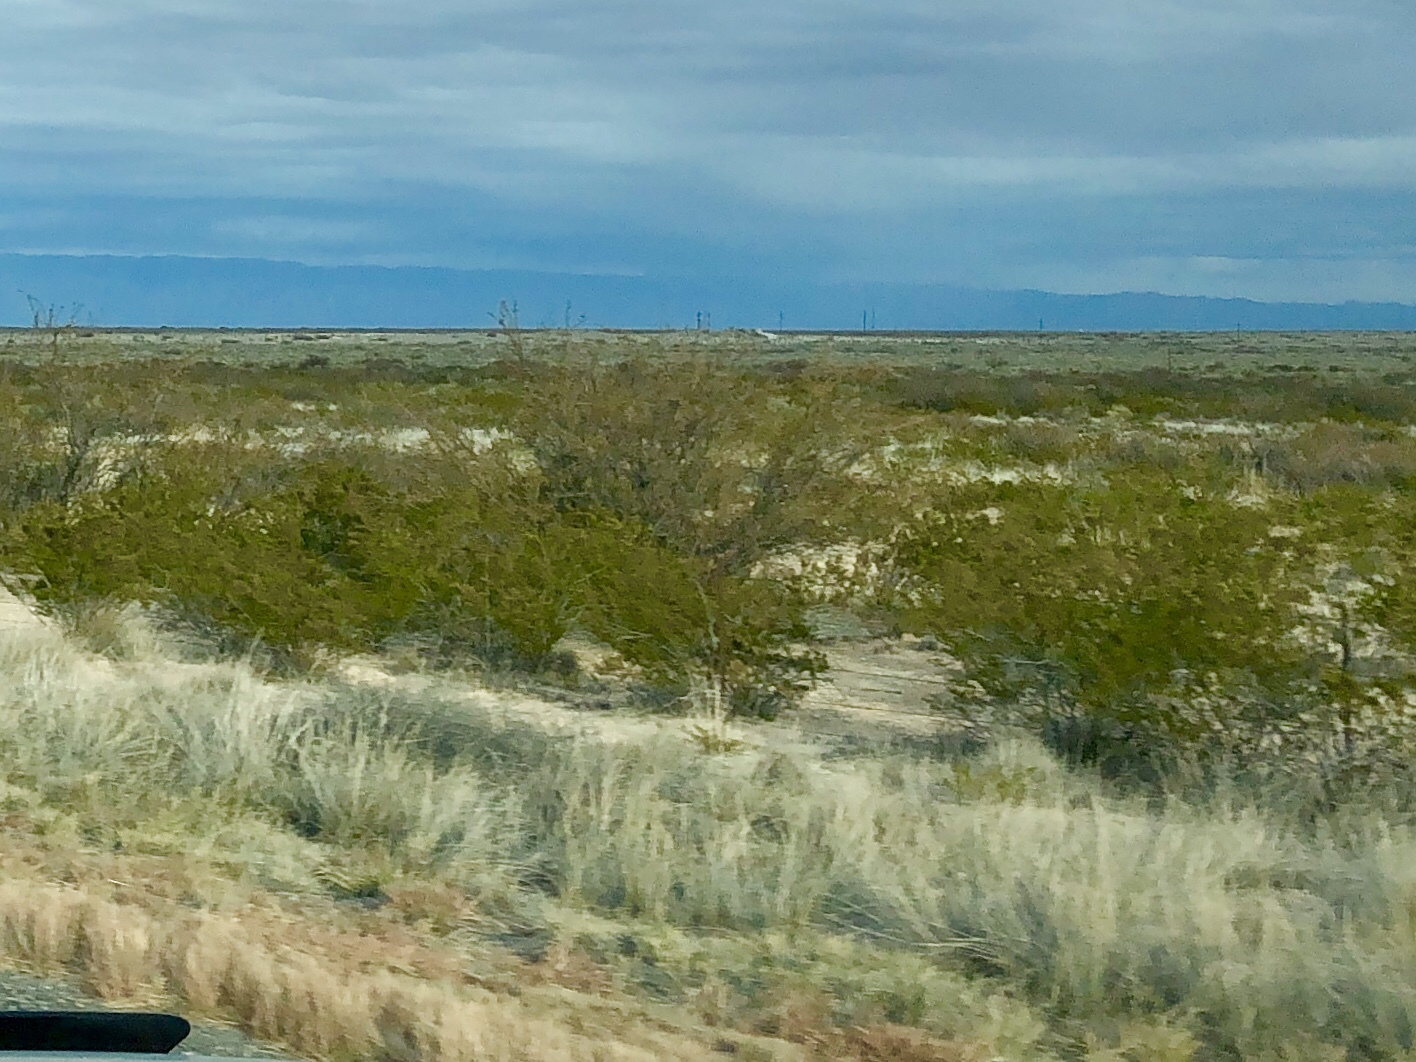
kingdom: Plantae
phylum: Tracheophyta
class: Magnoliopsida
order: Zygophyllales
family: Zygophyllaceae
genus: Larrea
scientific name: Larrea tridentata
